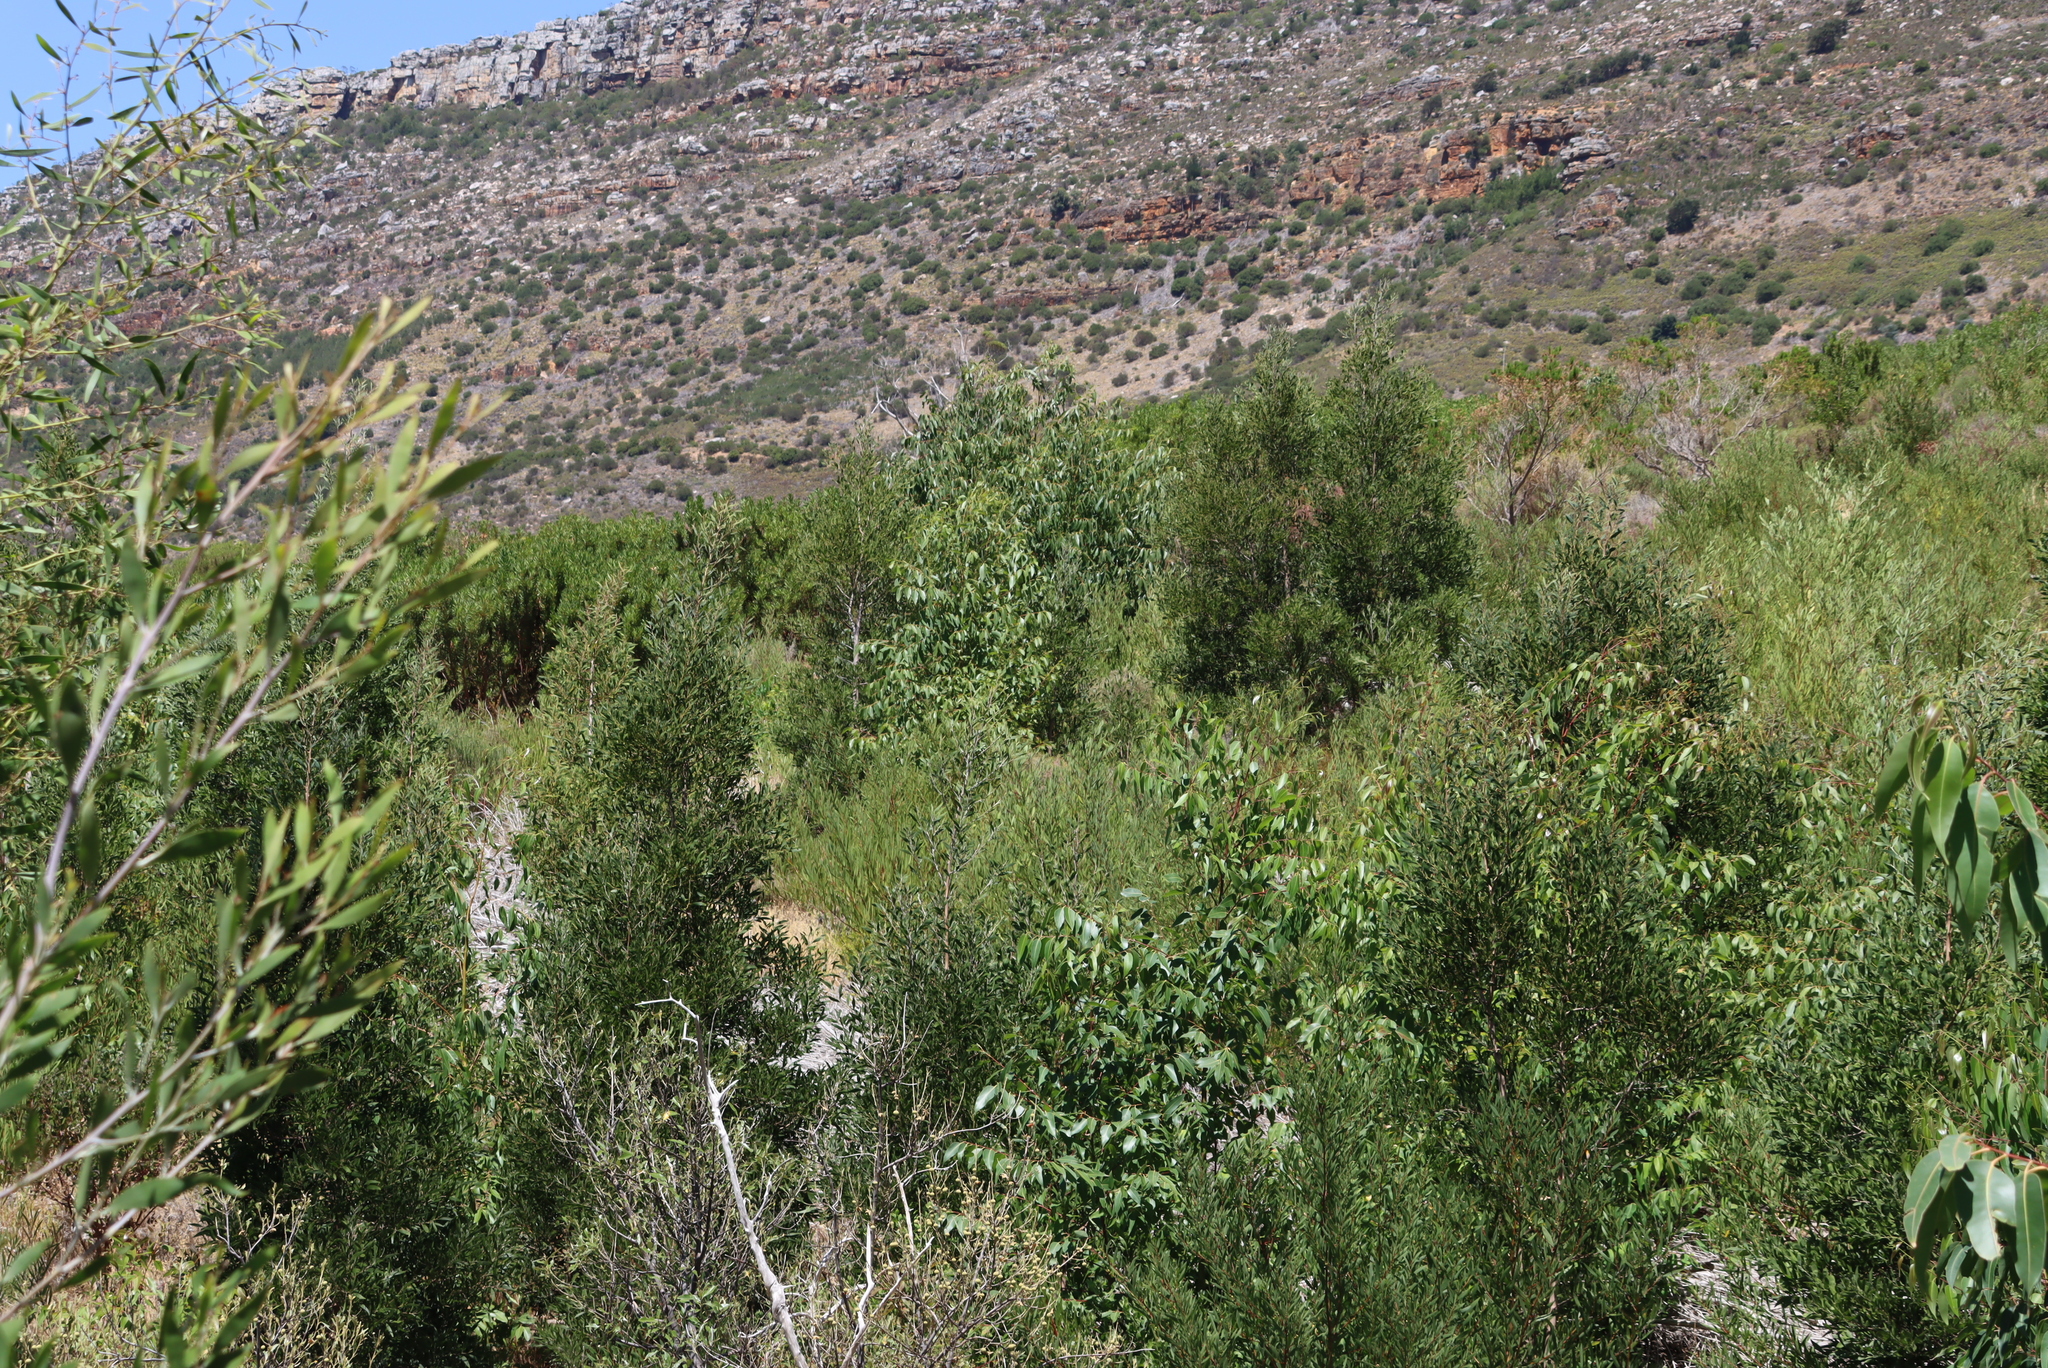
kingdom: Plantae
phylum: Tracheophyta
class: Magnoliopsida
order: Fabales
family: Fabaceae
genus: Acacia
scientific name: Acacia melanoxylon
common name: Blackwood
